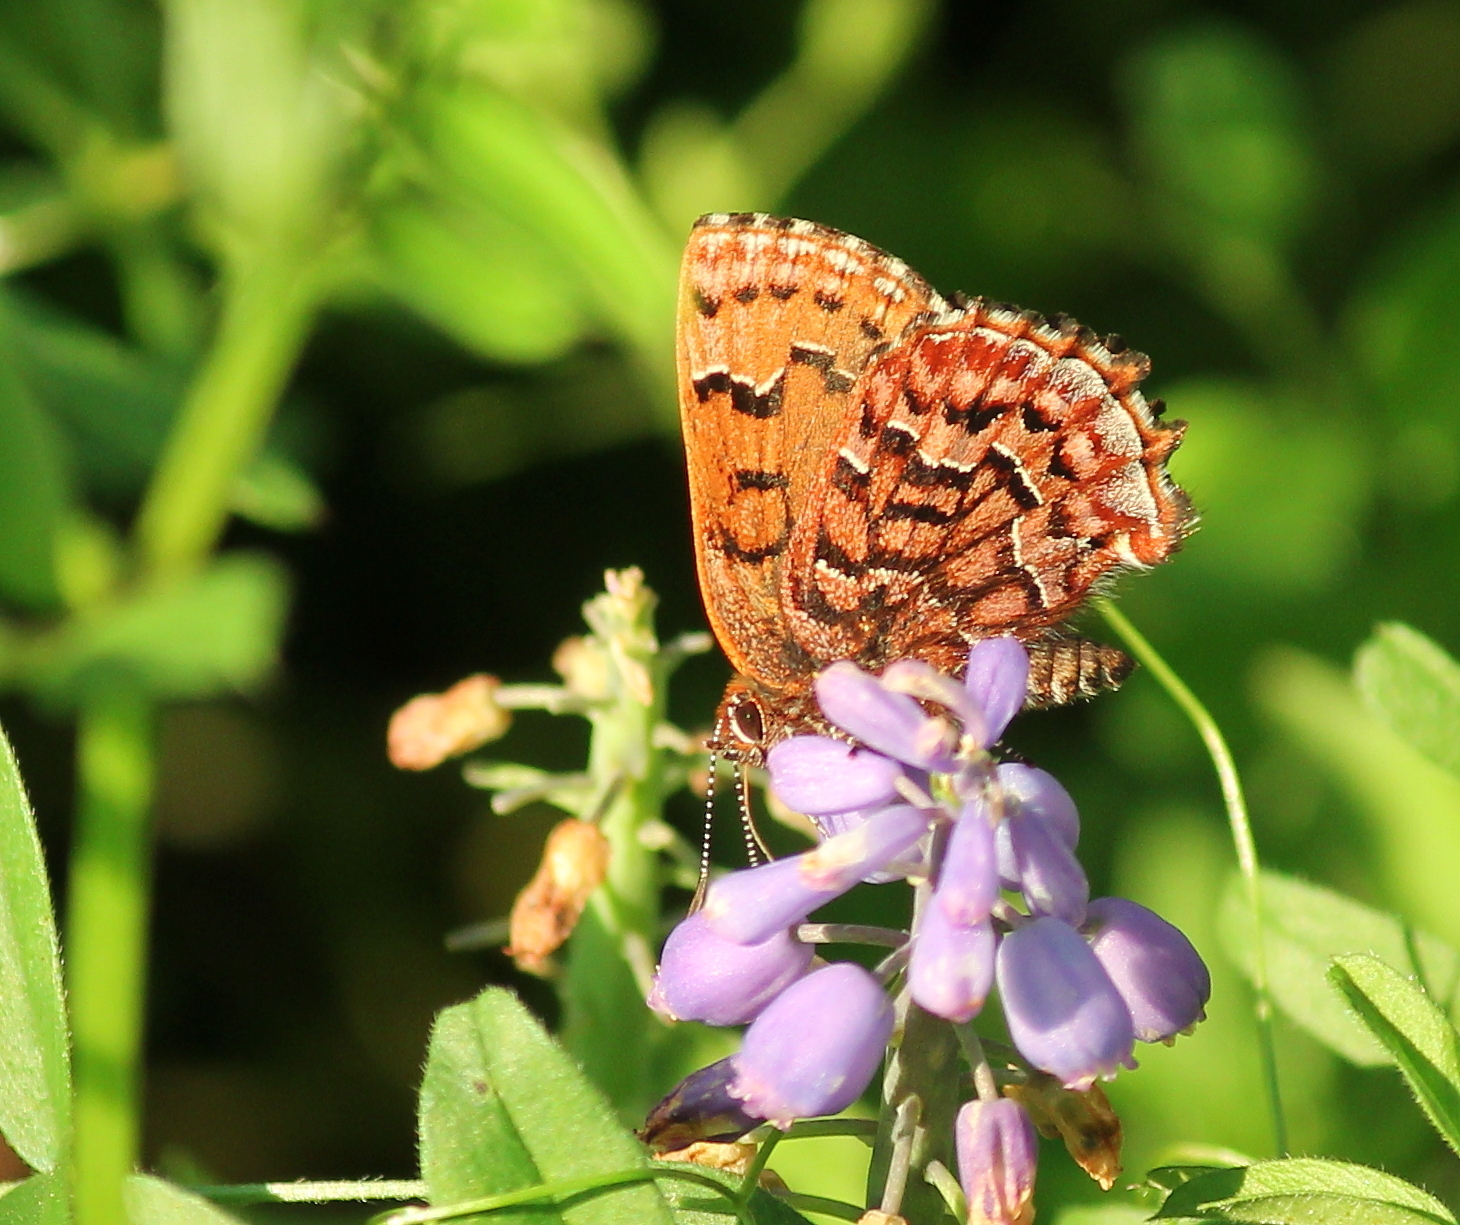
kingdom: Animalia
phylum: Arthropoda
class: Insecta
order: Lepidoptera
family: Lycaenidae
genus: Incisalia
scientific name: Incisalia niphon
